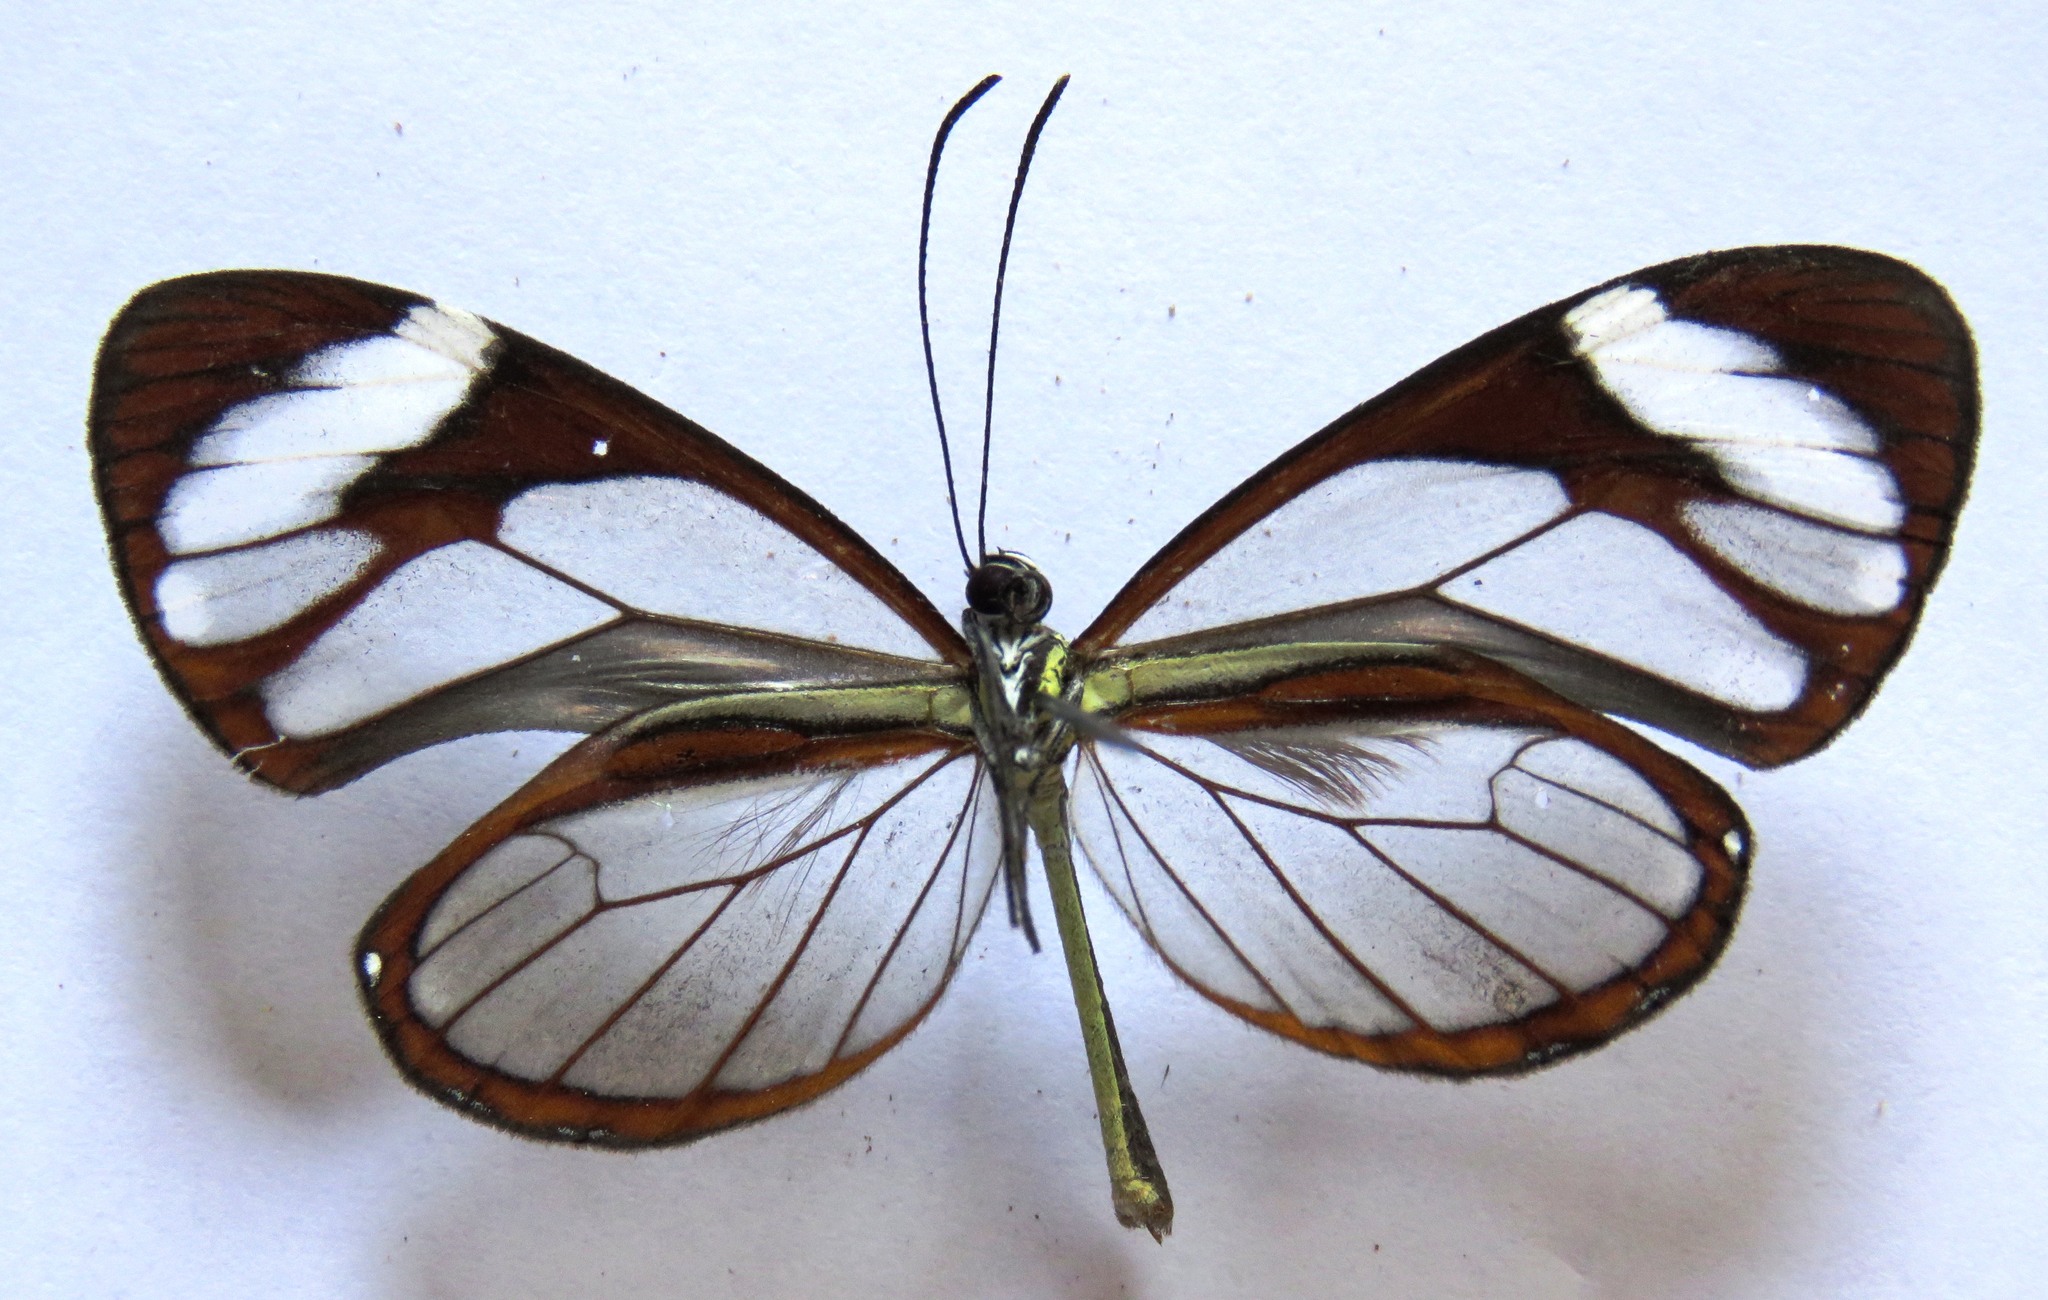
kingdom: Animalia
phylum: Arthropoda
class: Insecta
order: Lepidoptera
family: Nymphalidae
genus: Ithomia
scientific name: Ithomia patilla
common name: Patilla clearwing
